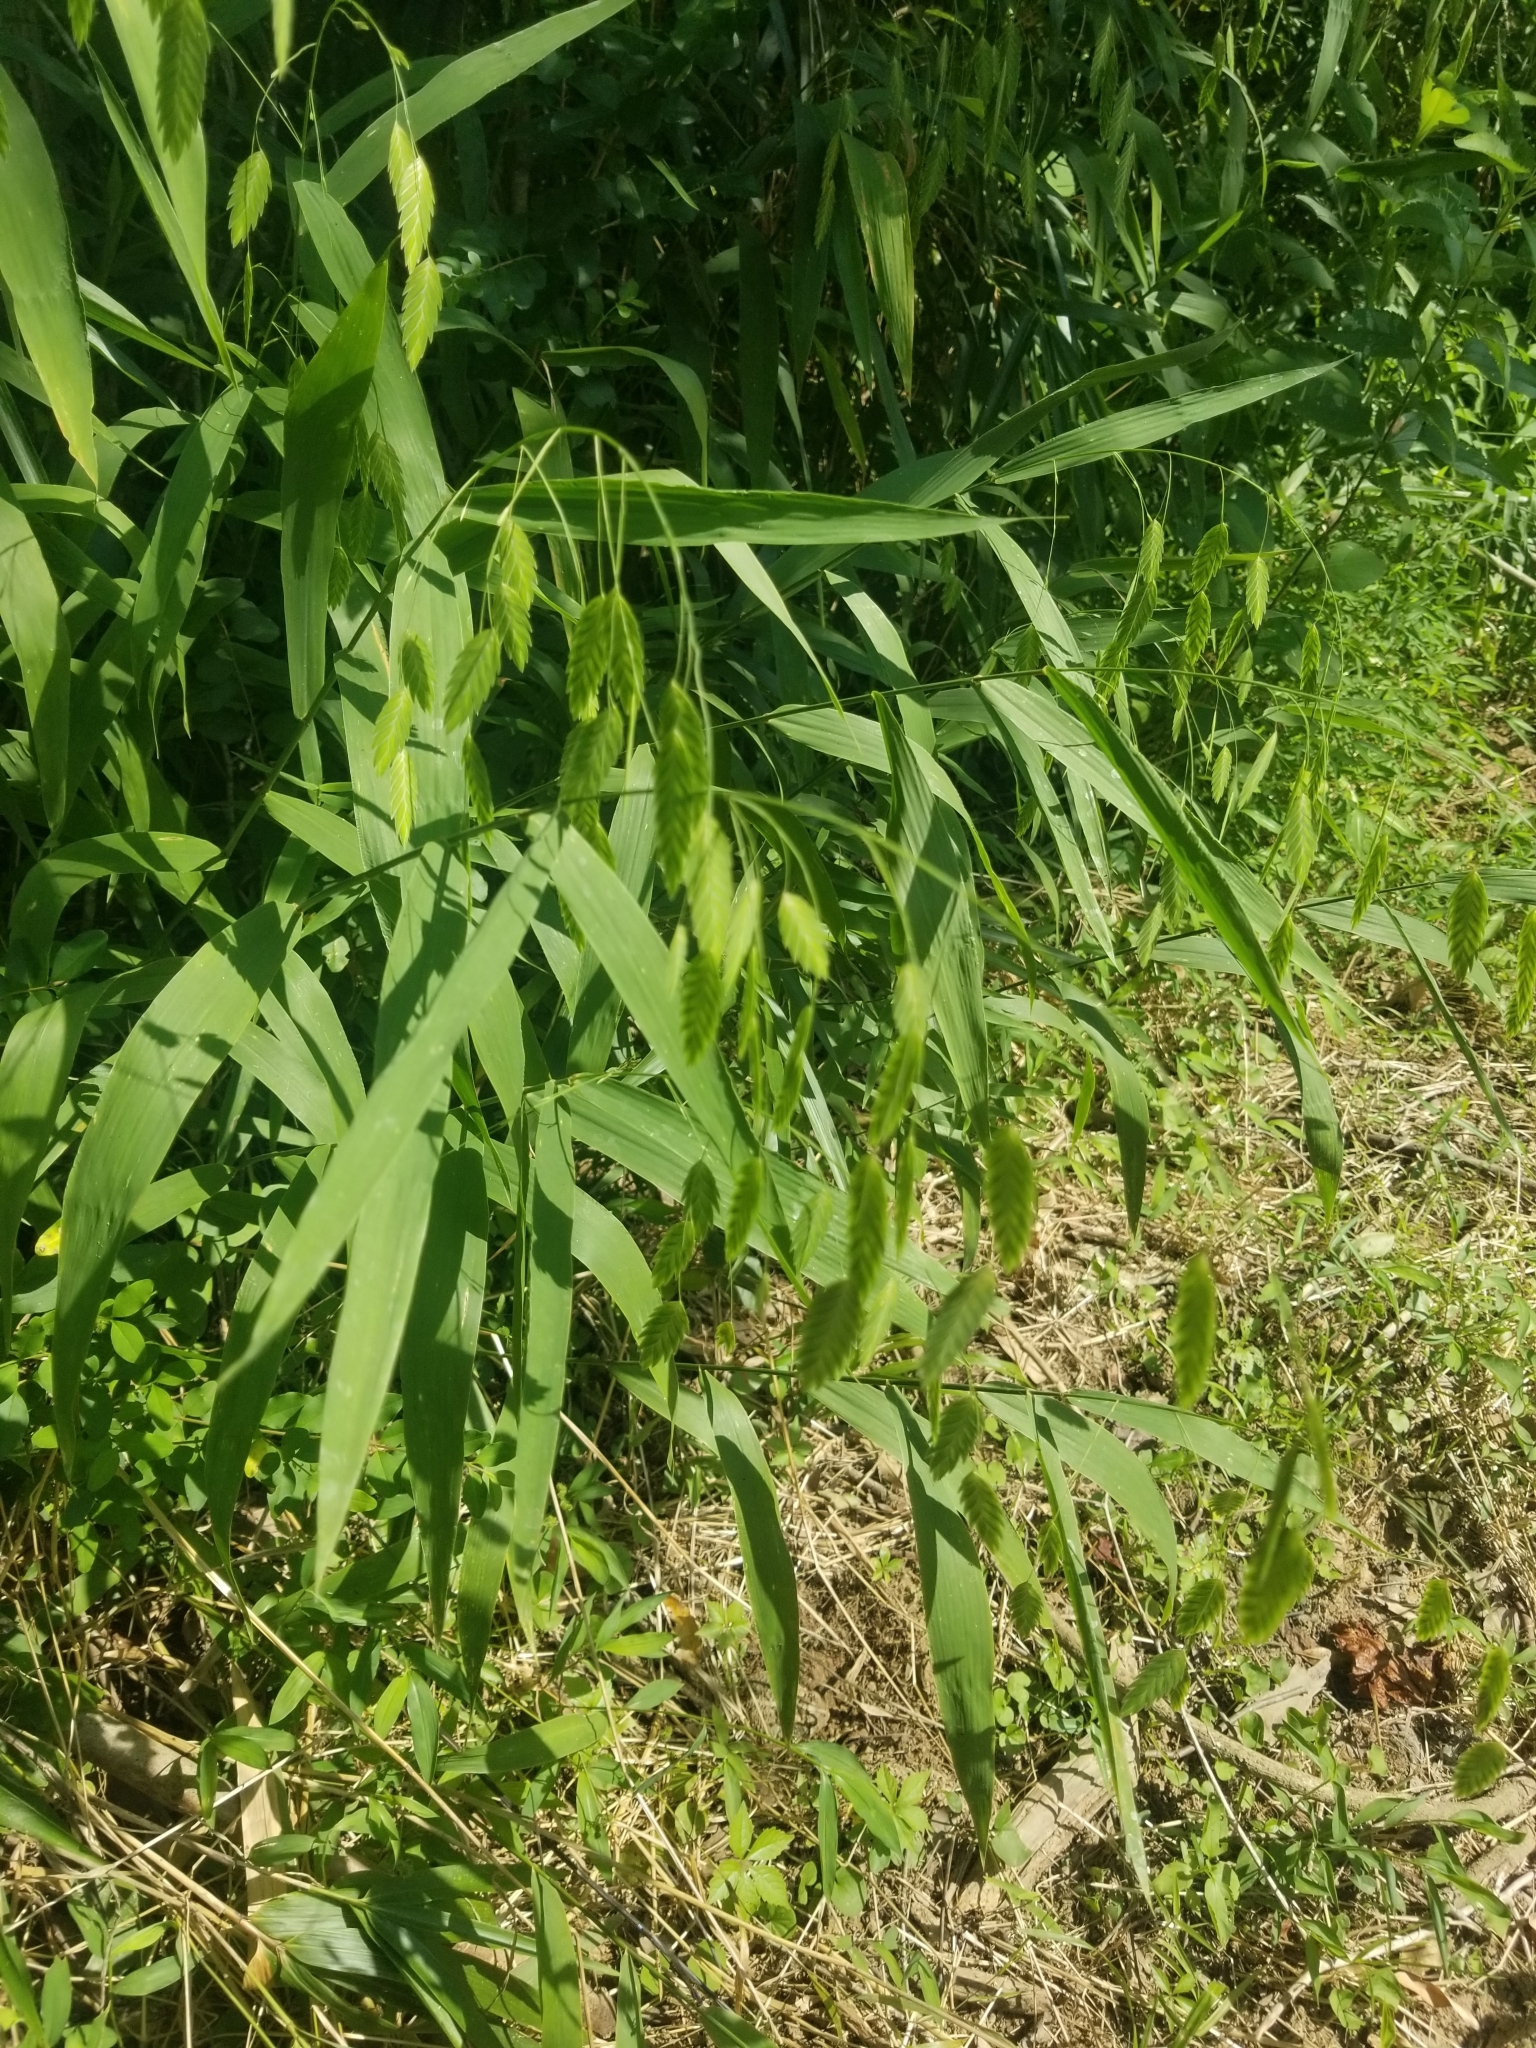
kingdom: Plantae
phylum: Tracheophyta
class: Liliopsida
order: Poales
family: Poaceae
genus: Chasmanthium
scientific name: Chasmanthium latifolium
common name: Broad-leaved chasmanthium
